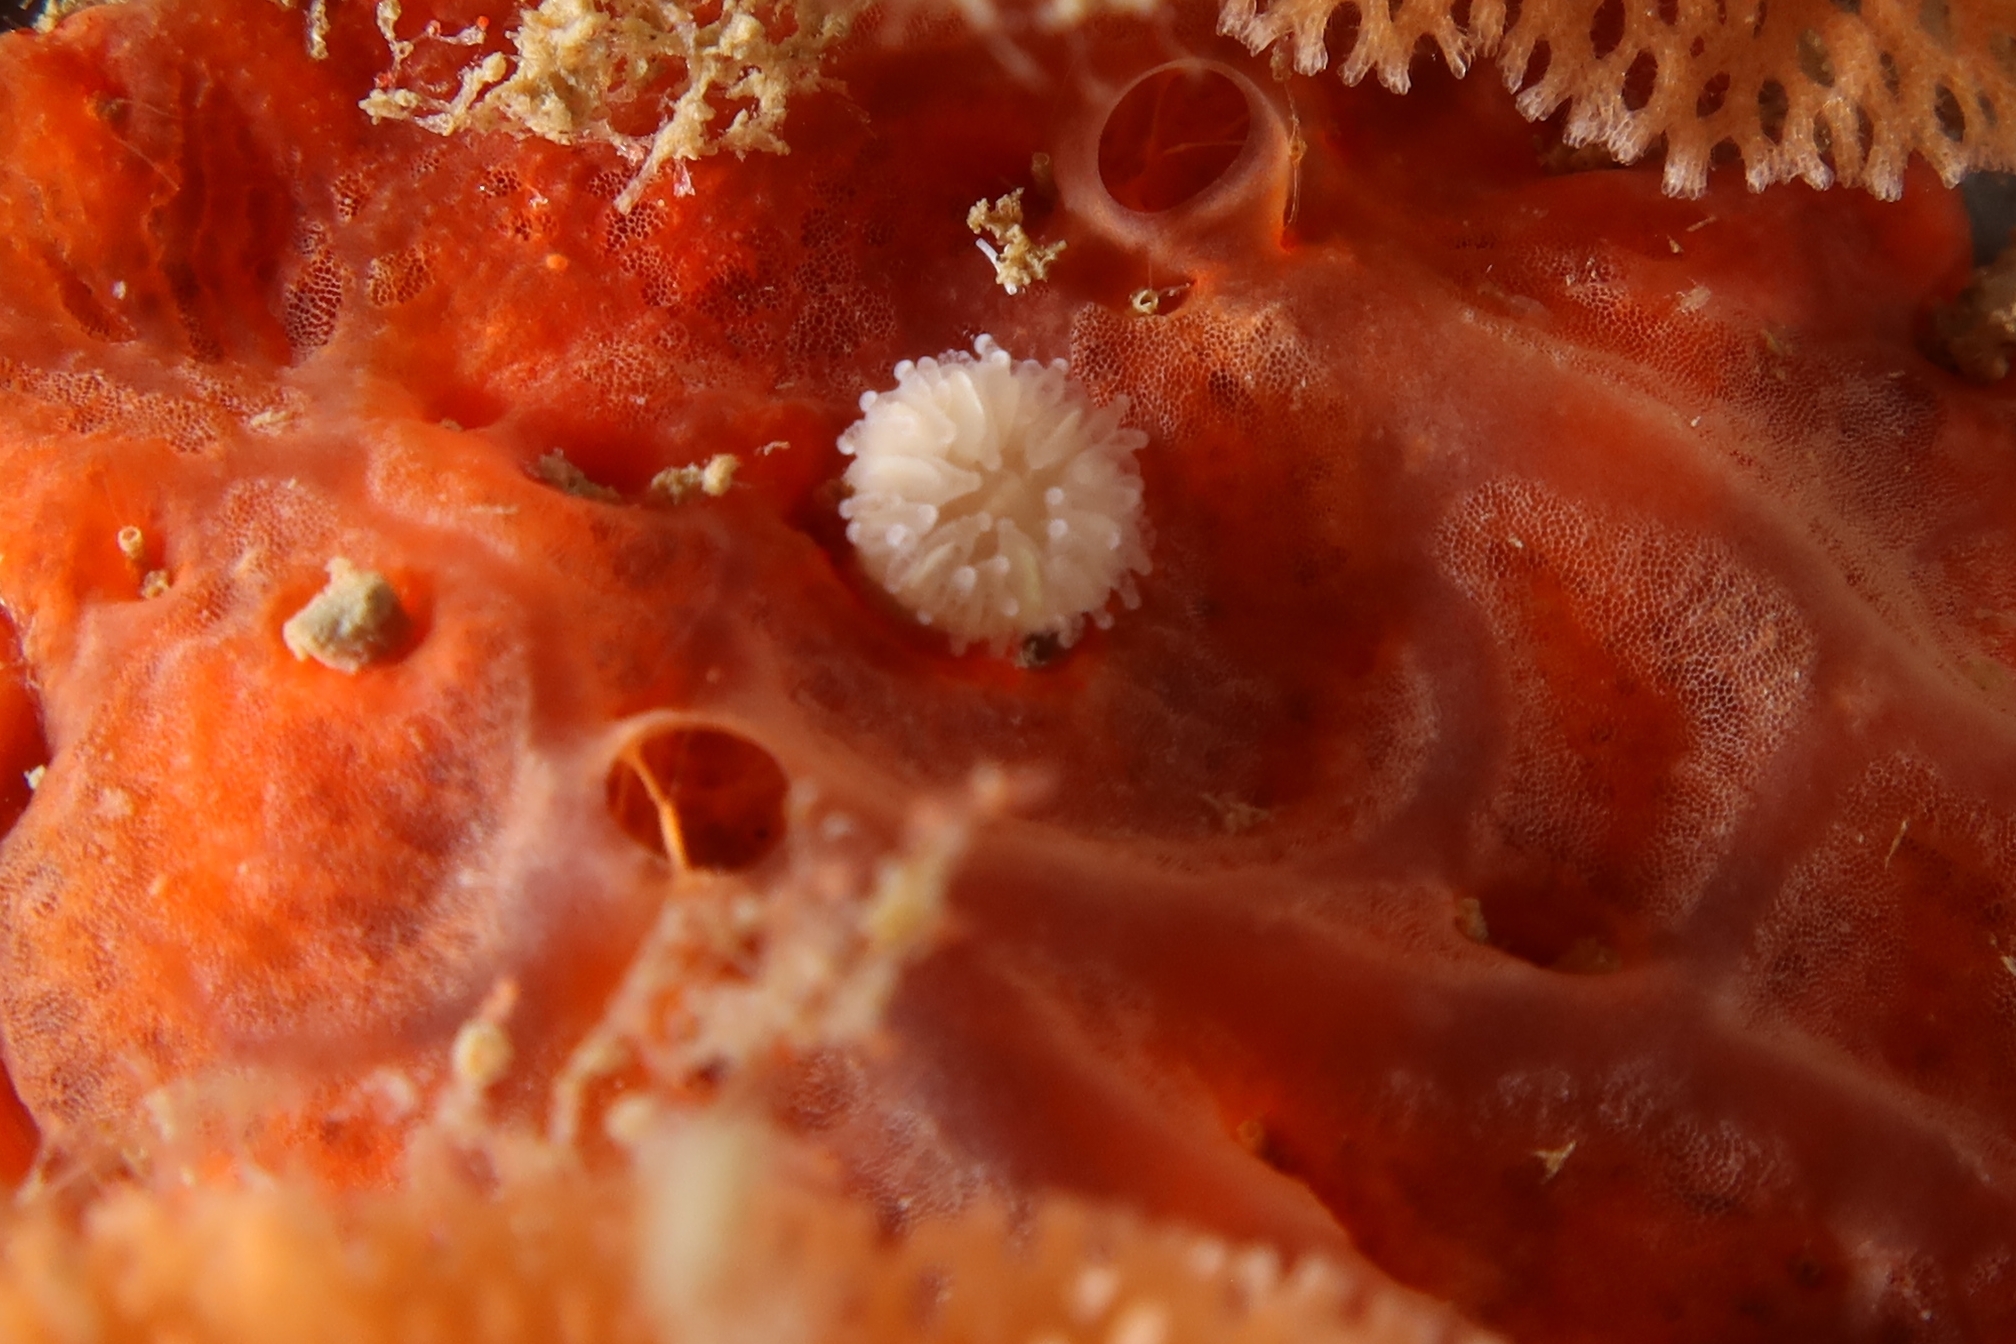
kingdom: Animalia
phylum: Cnidaria
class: Anthozoa
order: Scleractinia
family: Caryophylliidae
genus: Caryophyllia
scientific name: Caryophyllia inornata
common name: Circular cupcoral
